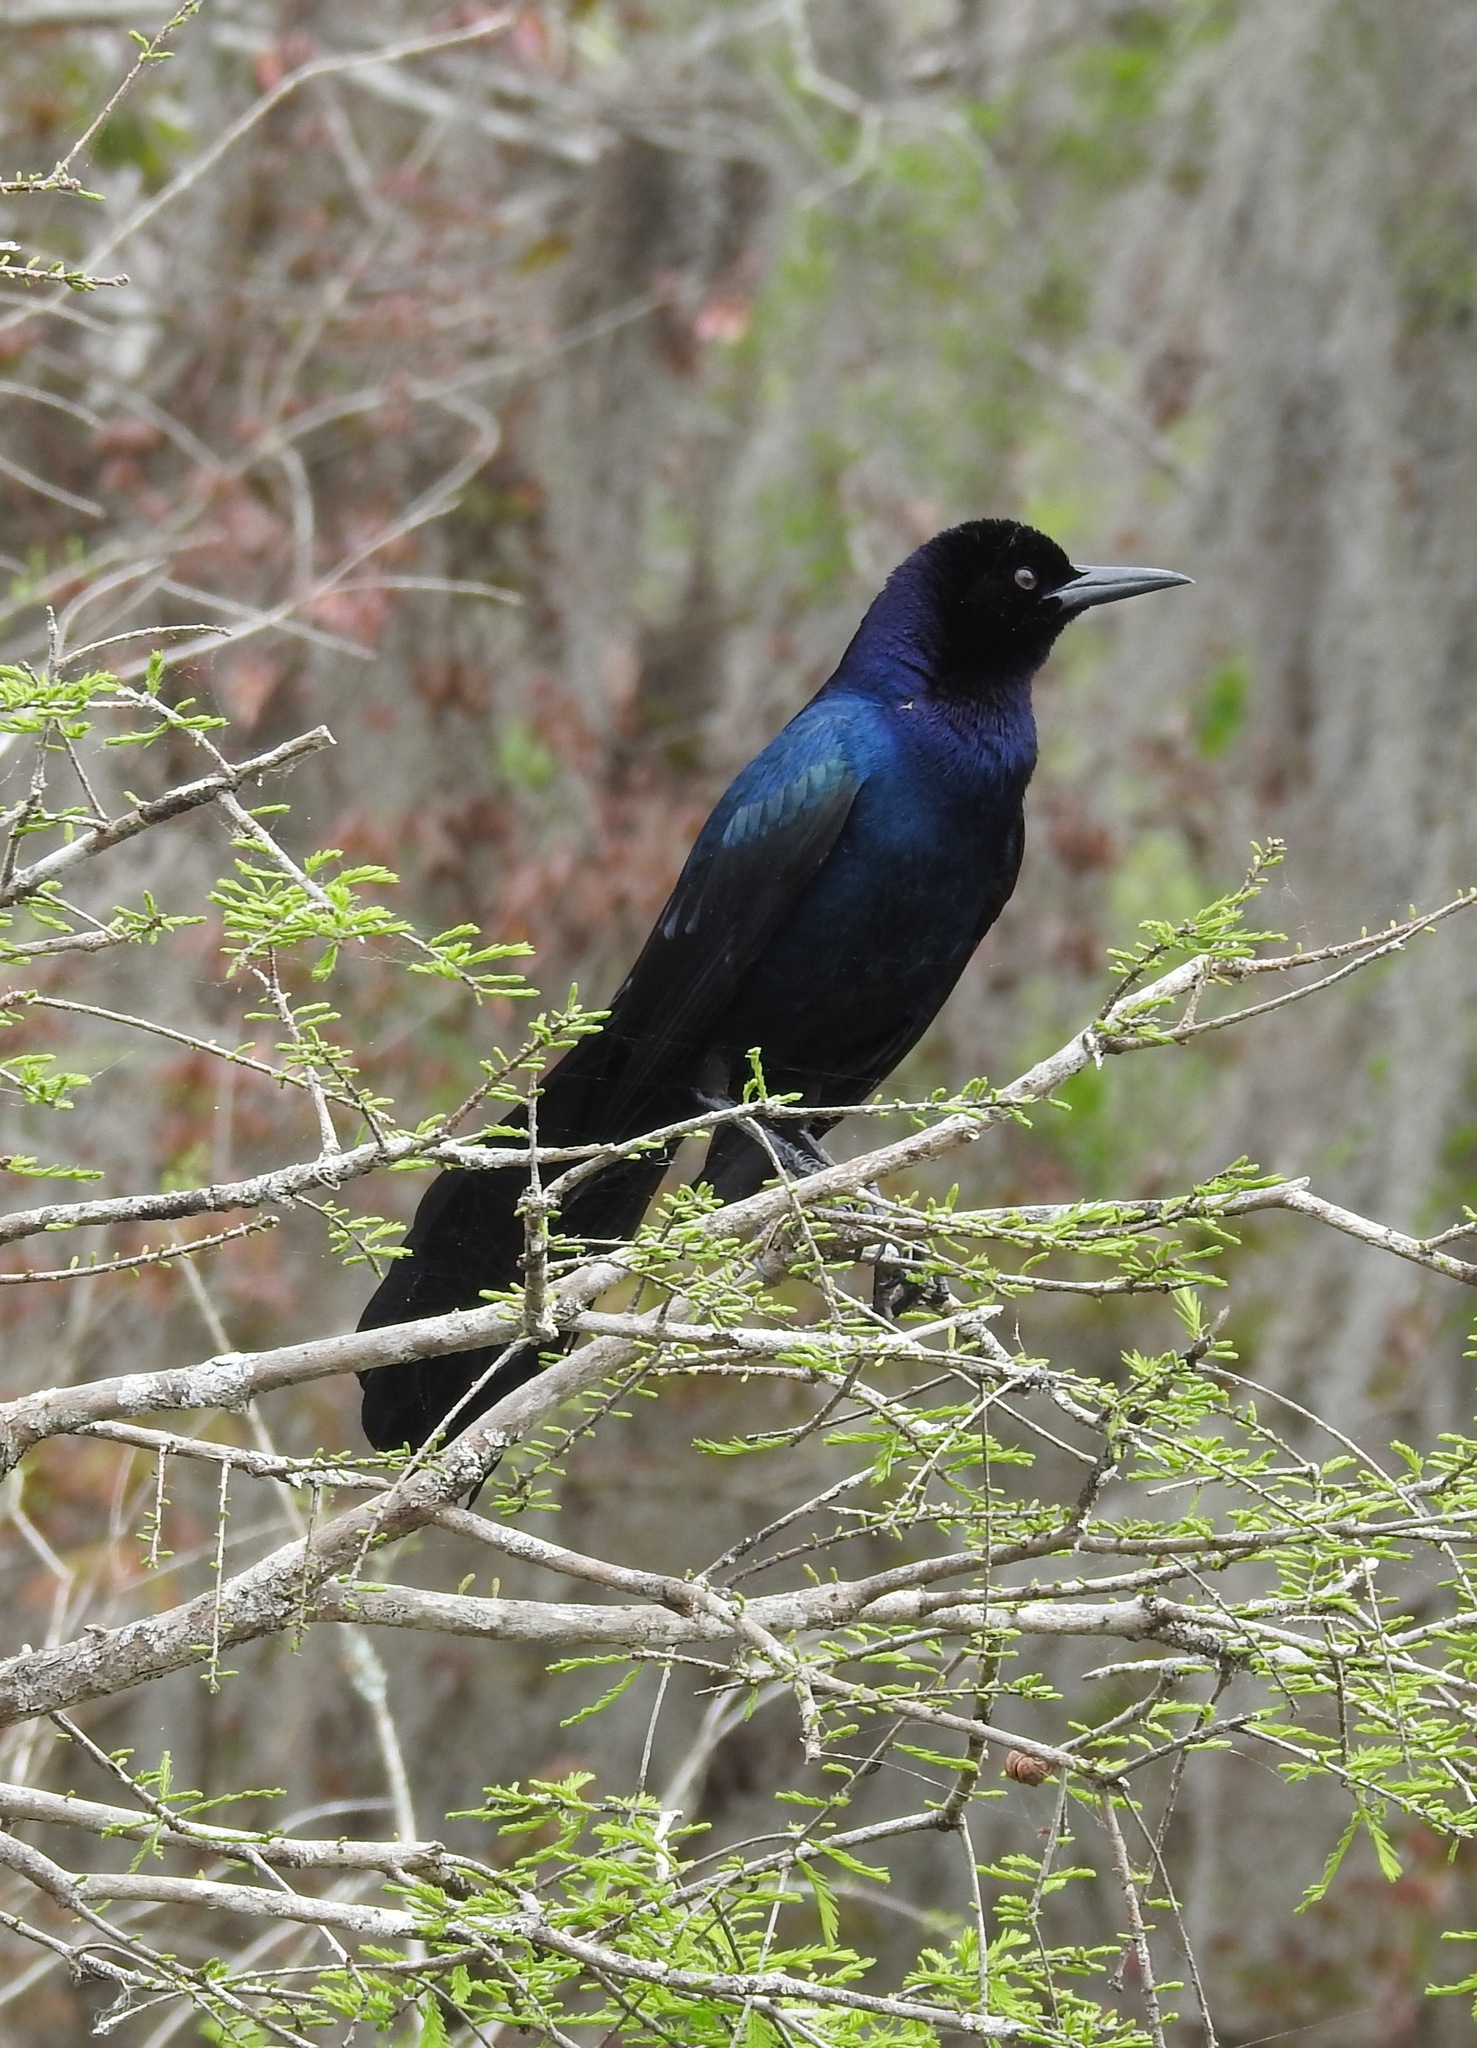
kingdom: Animalia
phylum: Chordata
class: Aves
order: Passeriformes
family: Icteridae
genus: Quiscalus
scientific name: Quiscalus major
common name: Boat-tailed grackle
